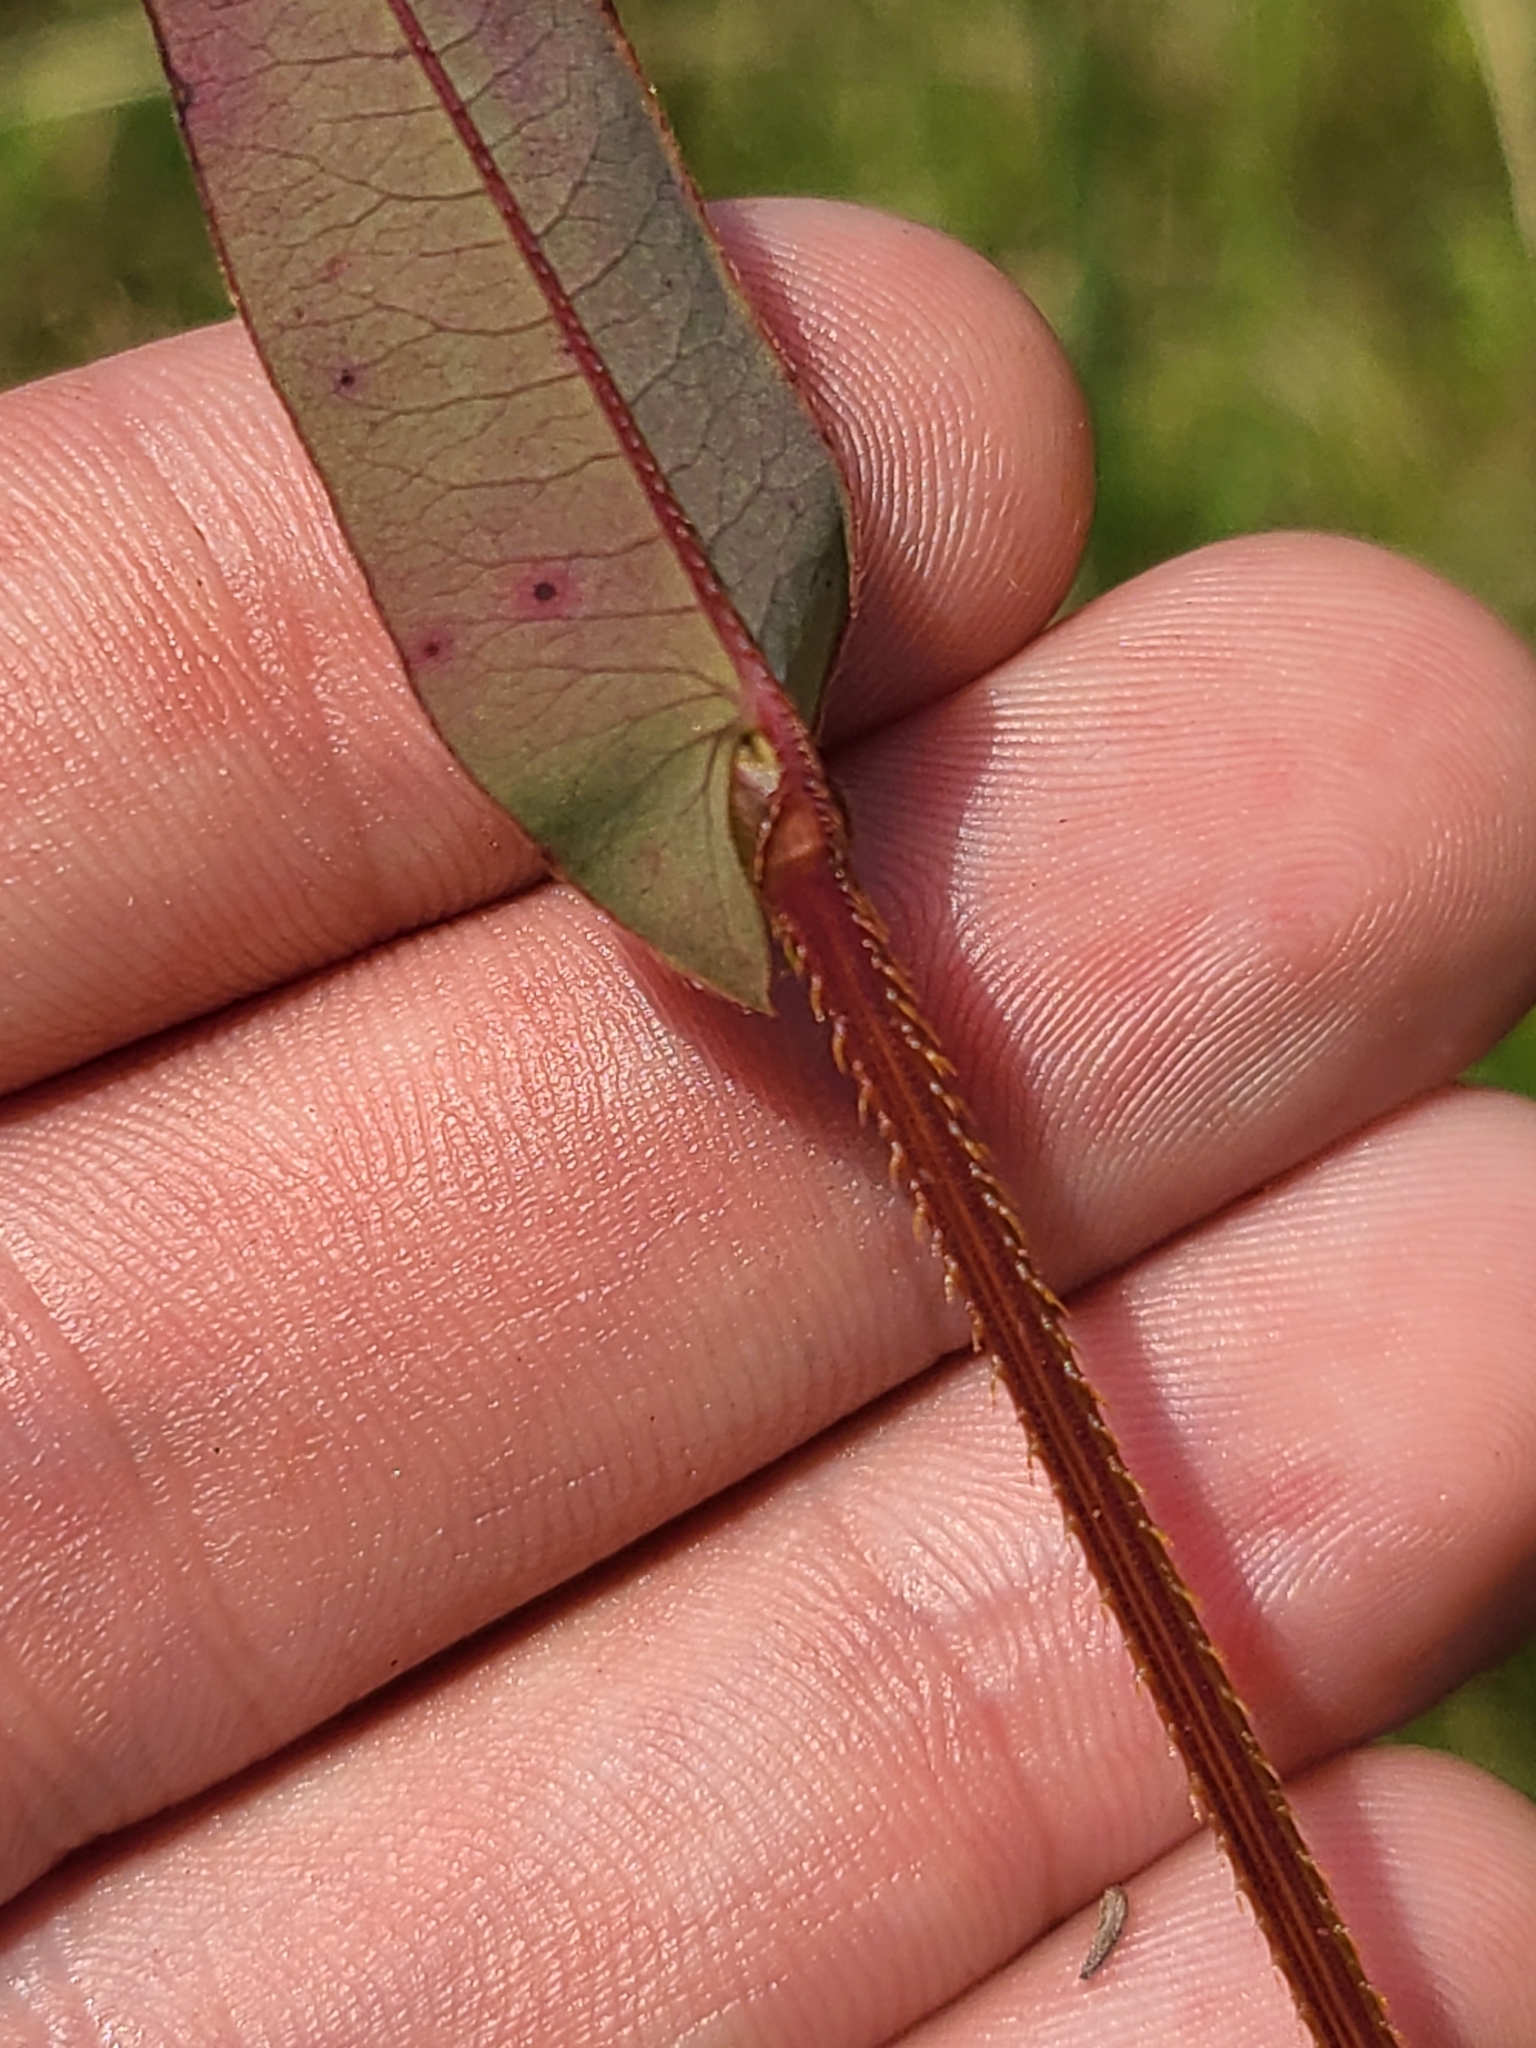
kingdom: Plantae
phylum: Tracheophyta
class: Magnoliopsida
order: Caryophyllales
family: Polygonaceae
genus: Persicaria
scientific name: Persicaria sagittata
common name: American tearthumb
